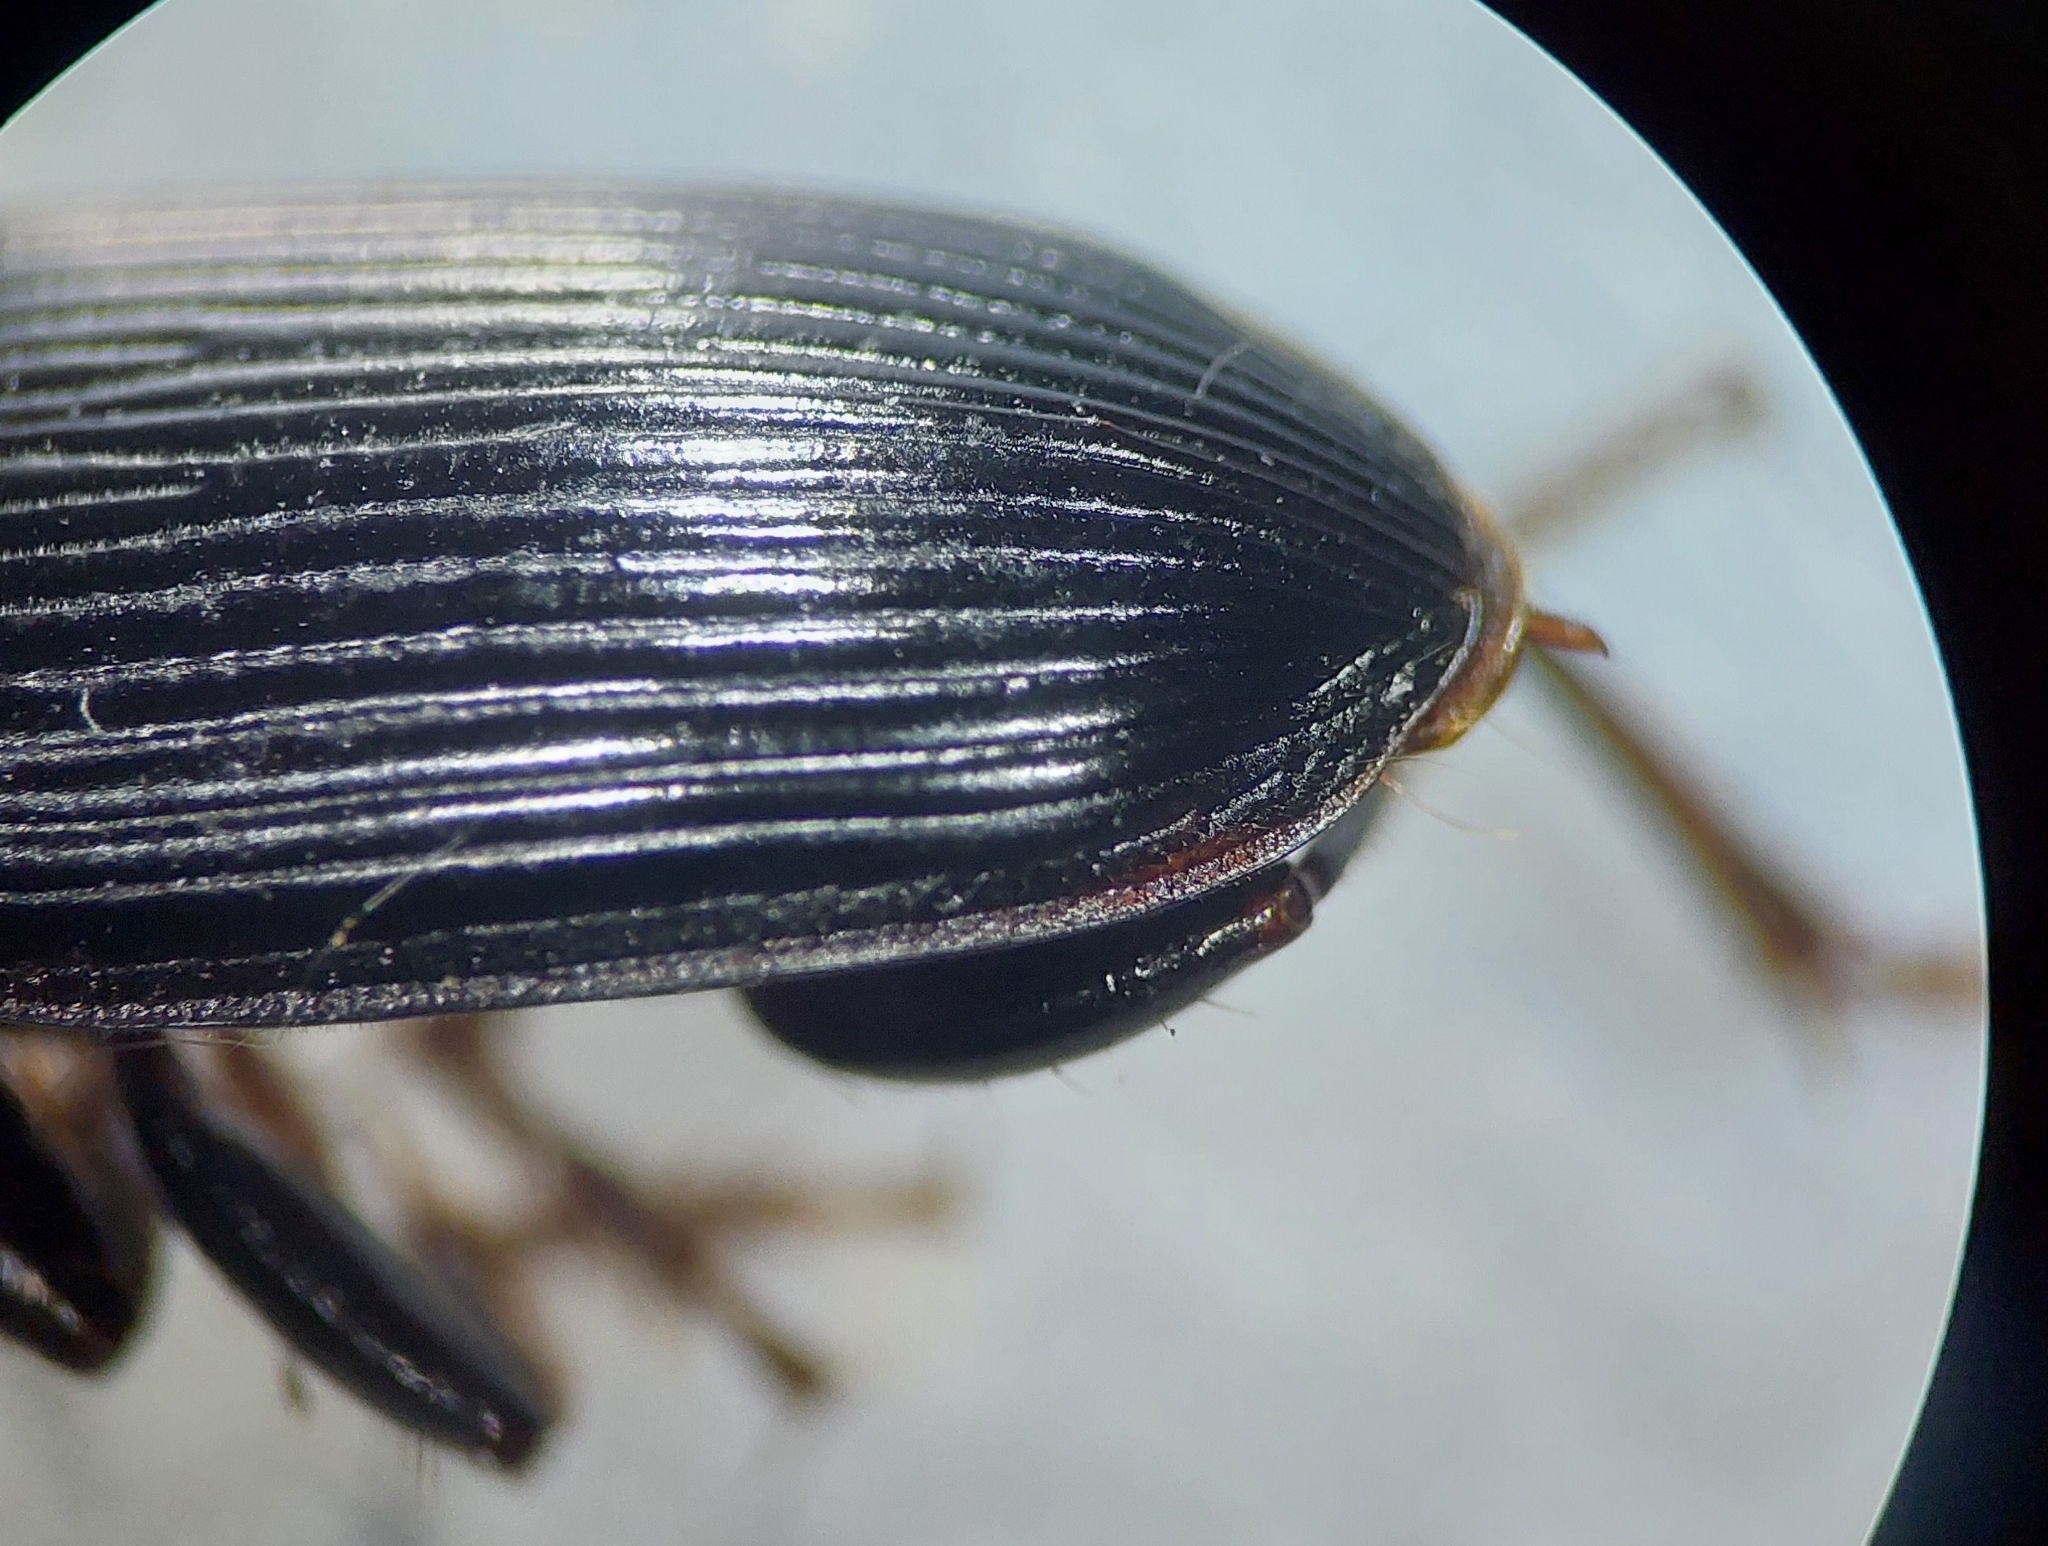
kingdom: Animalia
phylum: Arthropoda
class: Insecta
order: Coleoptera
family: Carabidae
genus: Harpalus
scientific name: Harpalus calceatus
